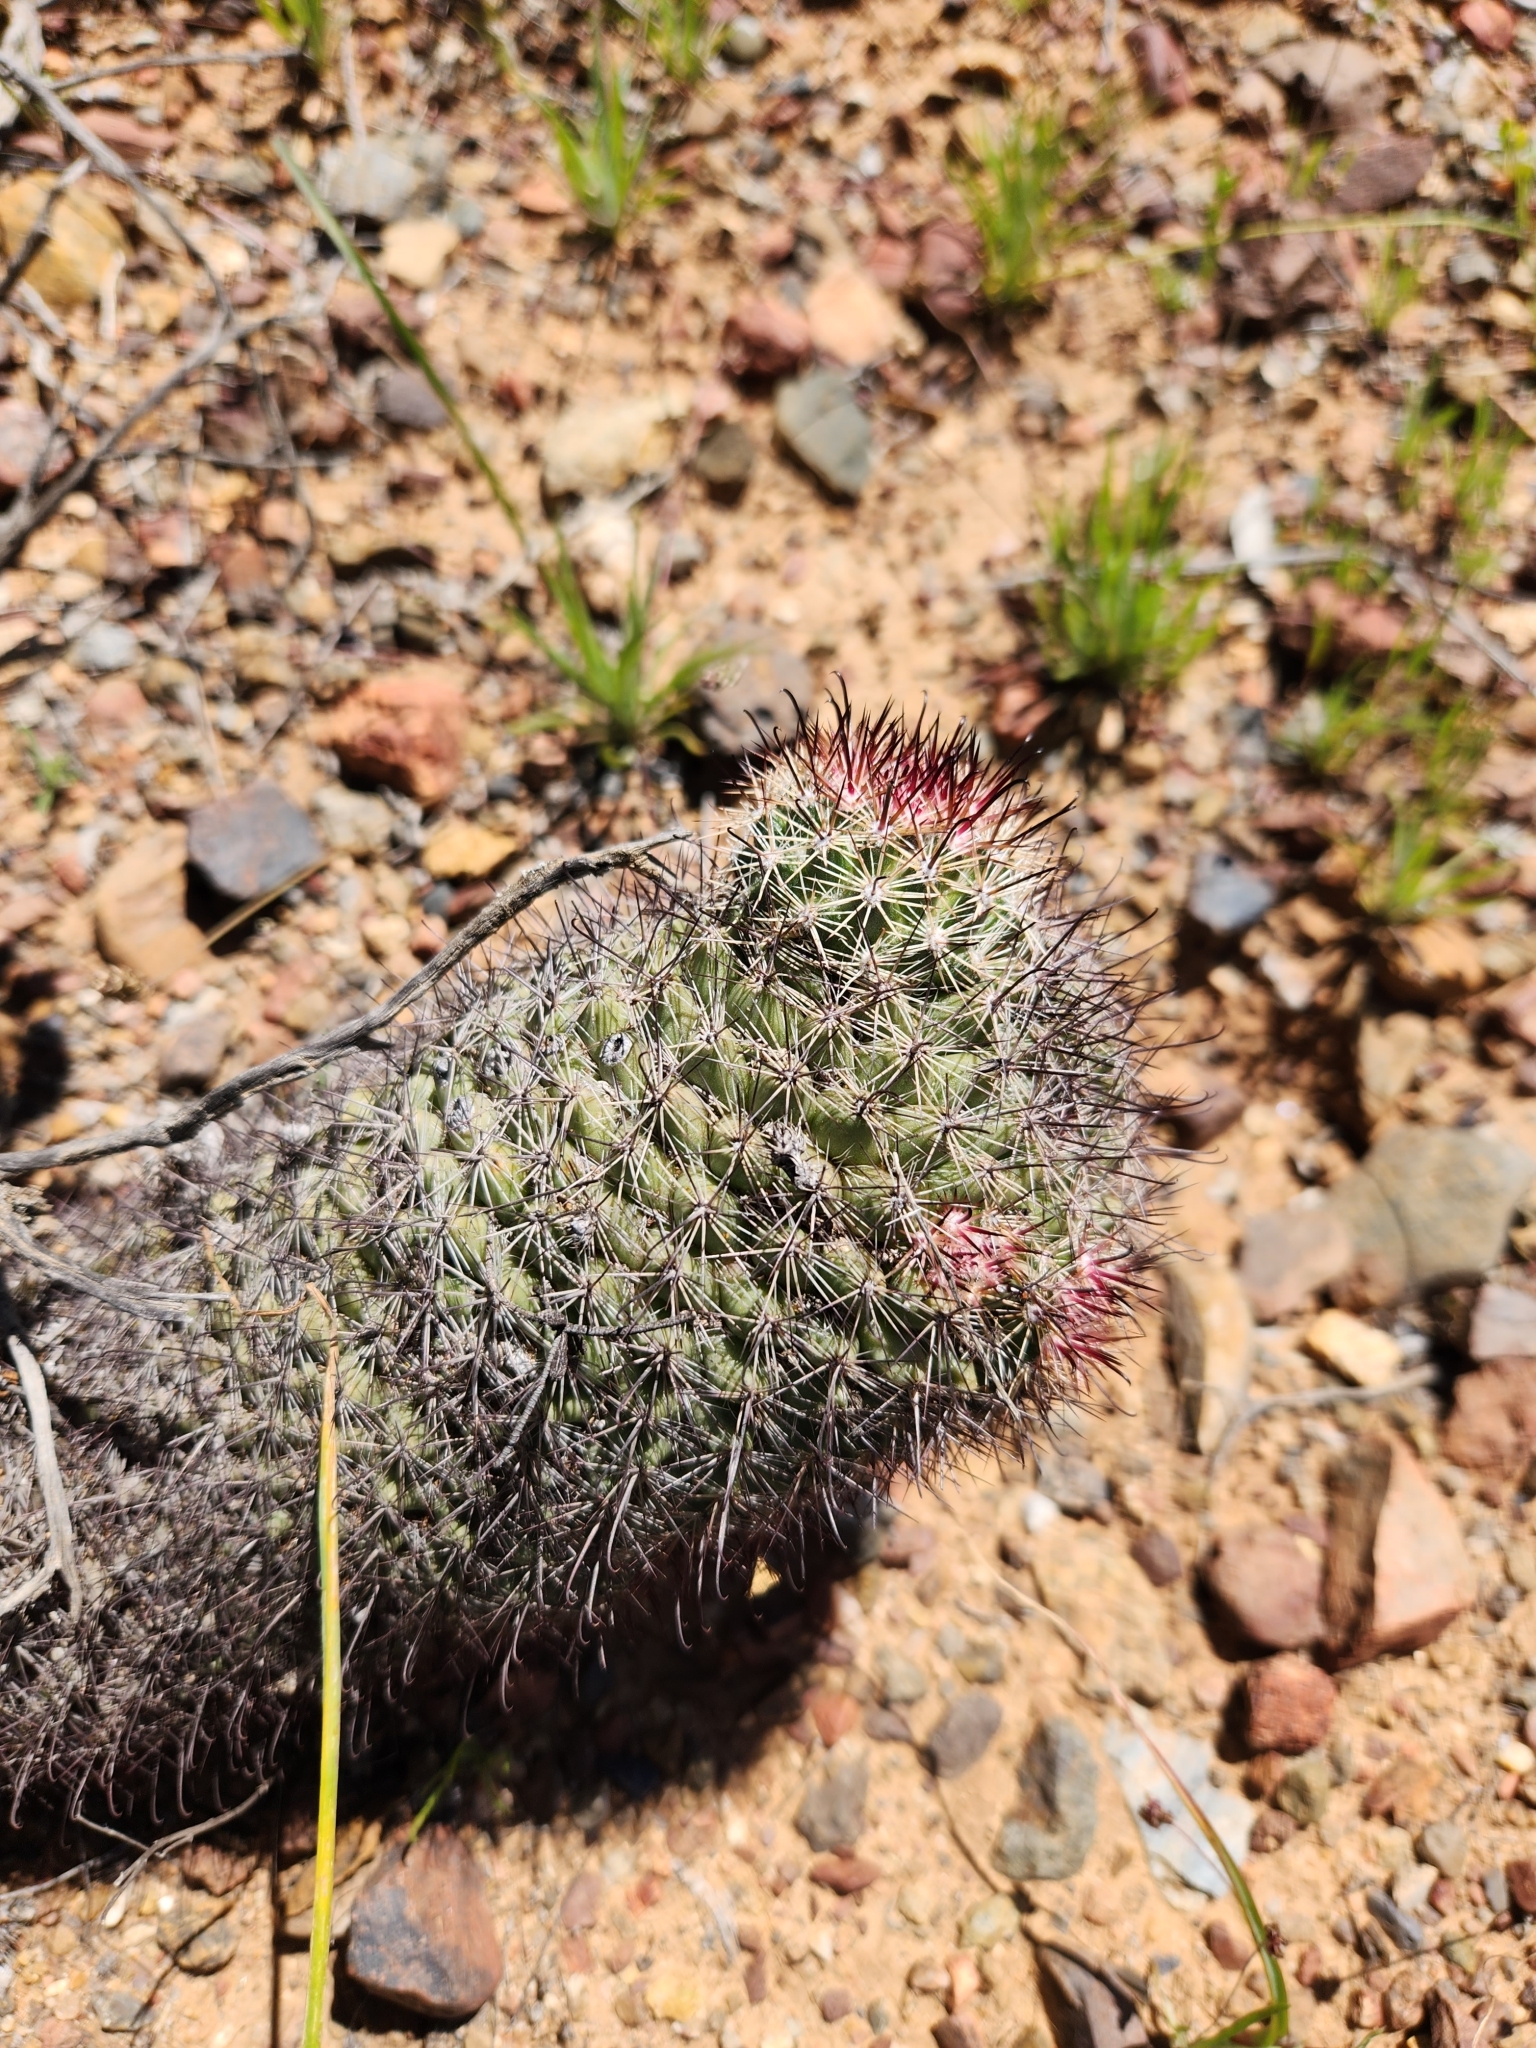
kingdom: Plantae
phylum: Tracheophyta
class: Magnoliopsida
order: Caryophyllales
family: Cactaceae
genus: Cochemiea
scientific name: Cochemiea dioica
